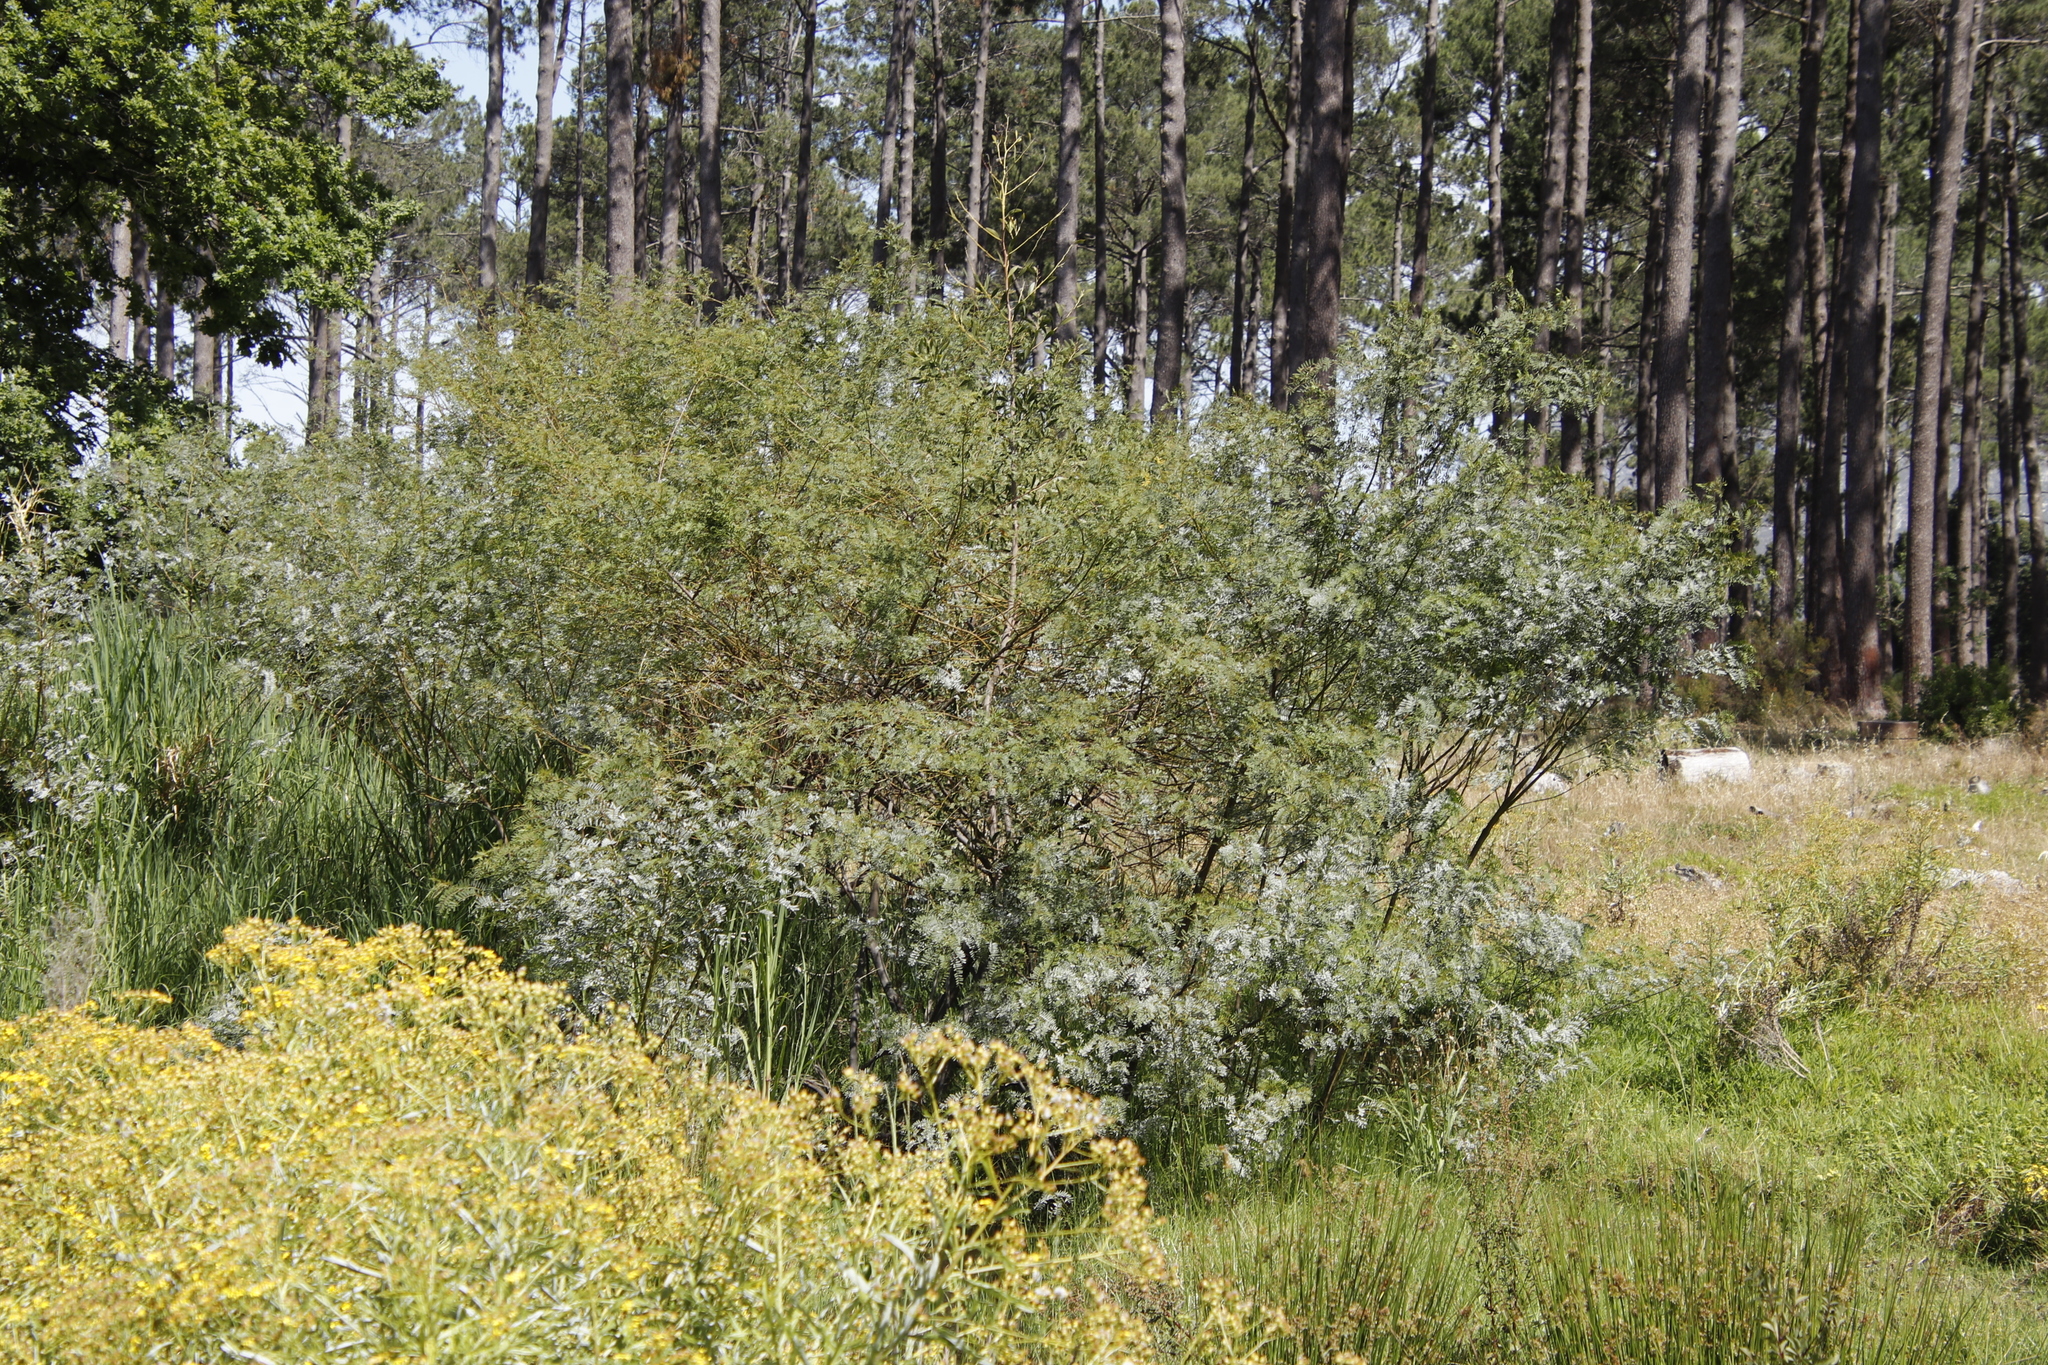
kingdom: Plantae
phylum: Tracheophyta
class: Magnoliopsida
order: Fabales
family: Fabaceae
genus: Sesbania
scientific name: Sesbania punicea
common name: Rattlebox
